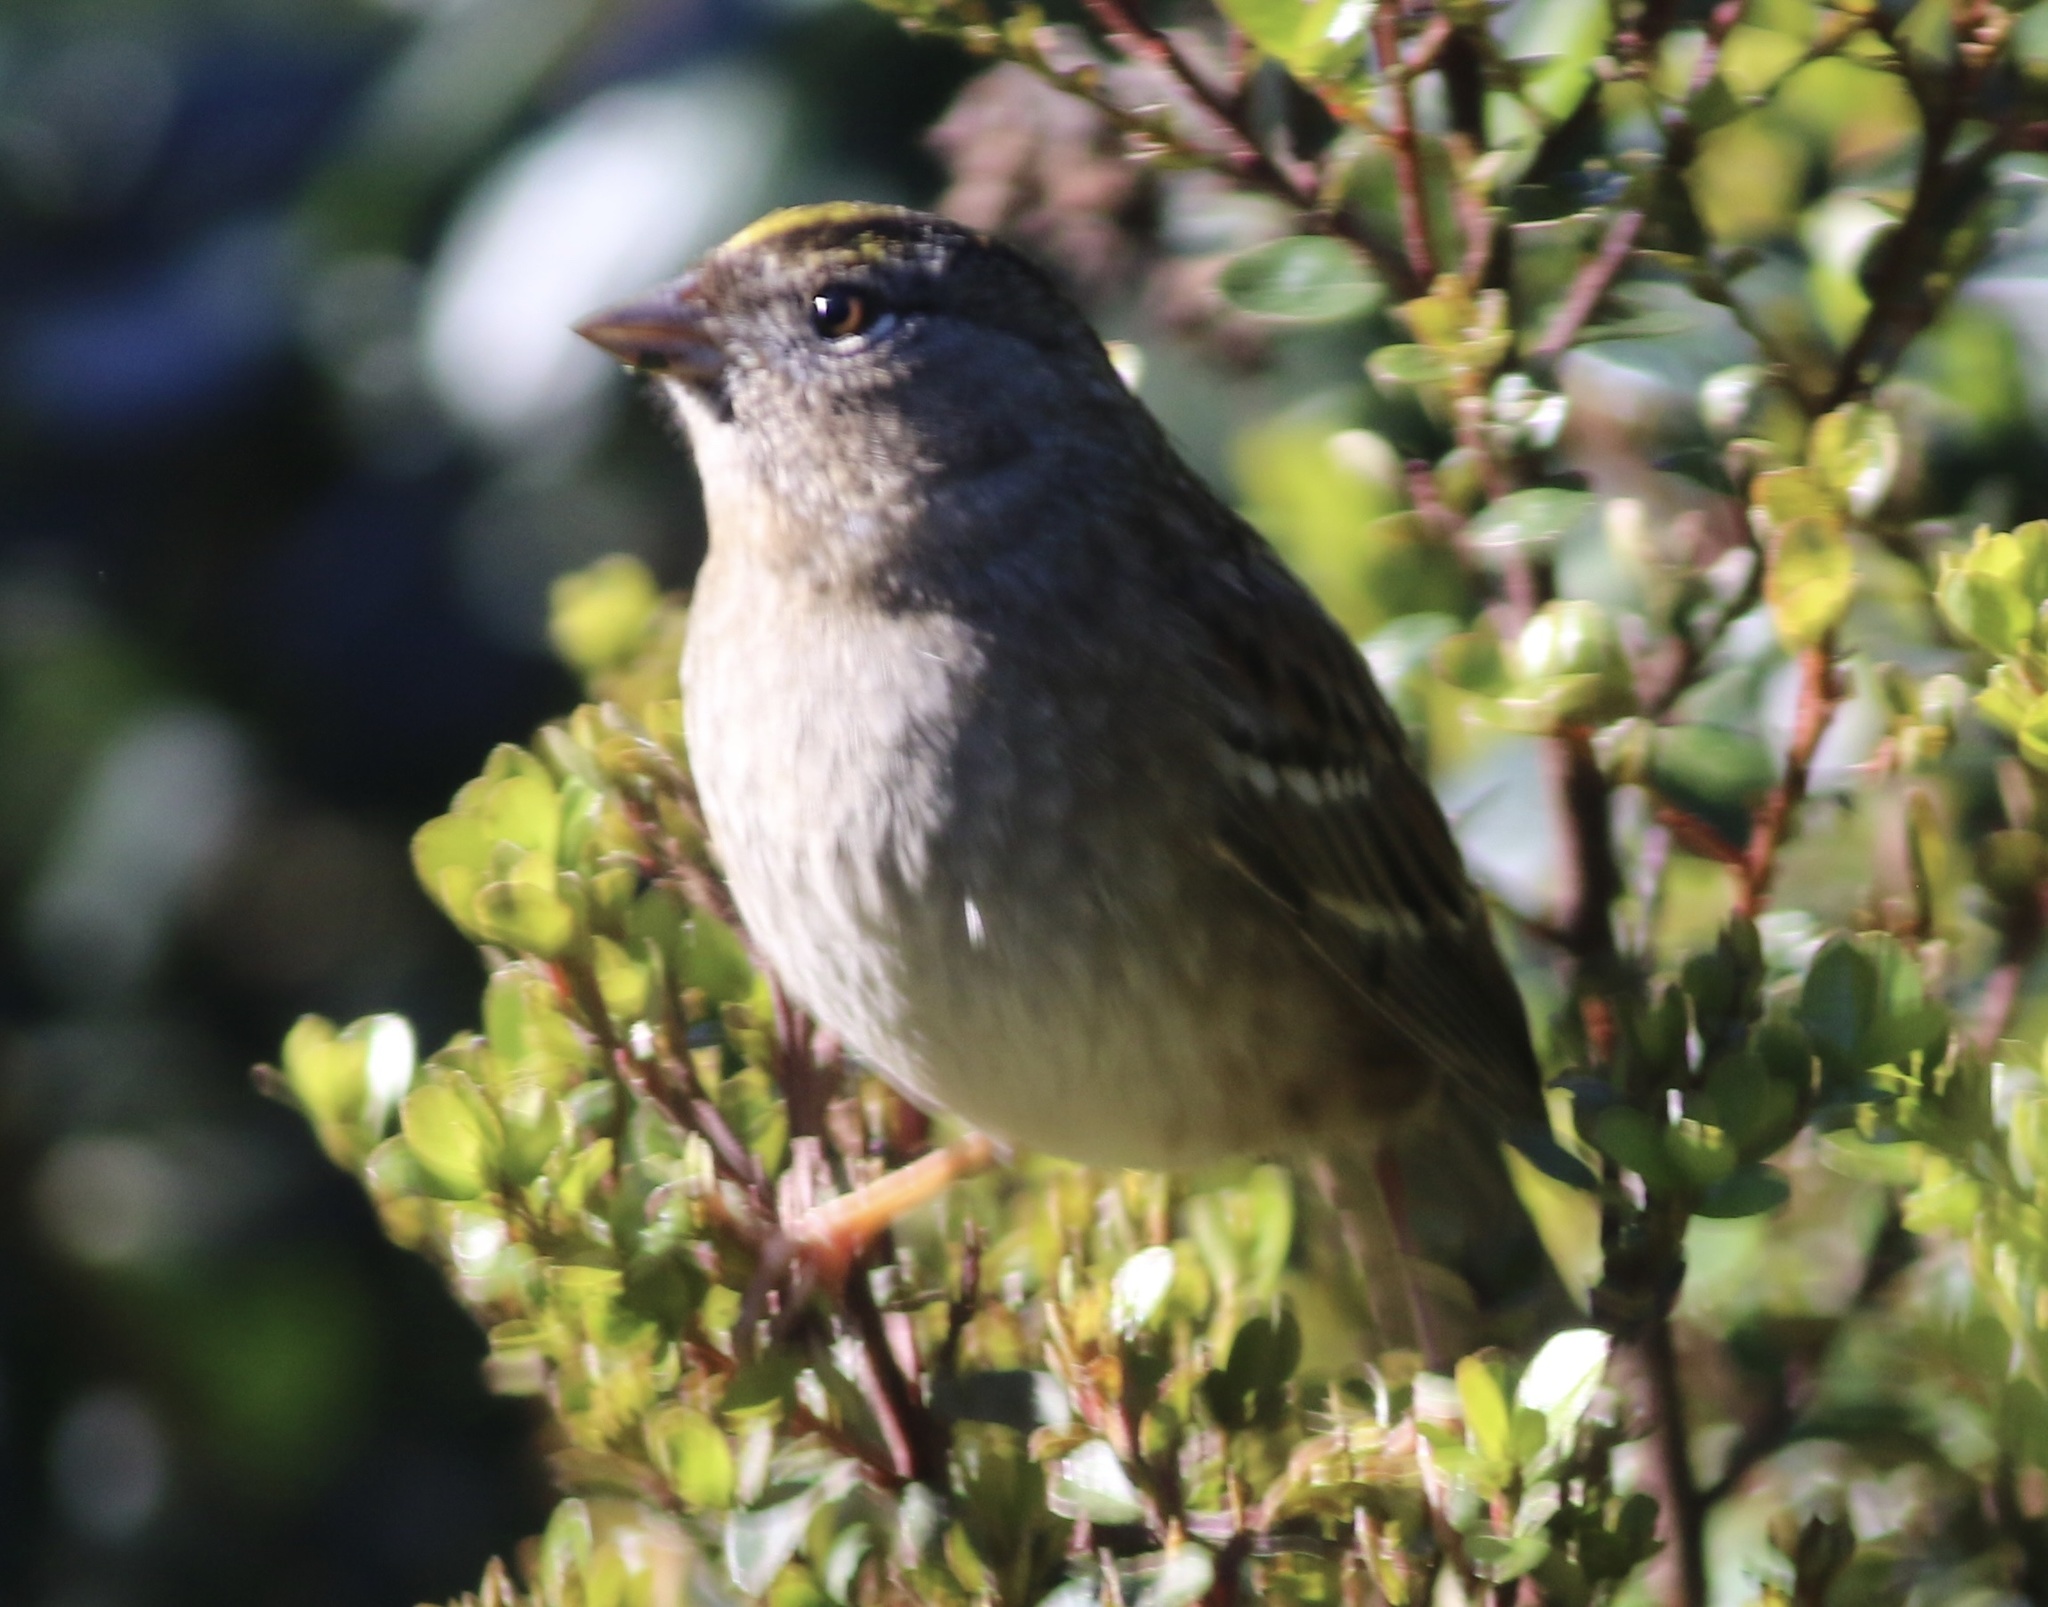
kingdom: Animalia
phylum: Chordata
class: Aves
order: Passeriformes
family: Passerellidae
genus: Zonotrichia
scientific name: Zonotrichia atricapilla
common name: Golden-crowned sparrow
